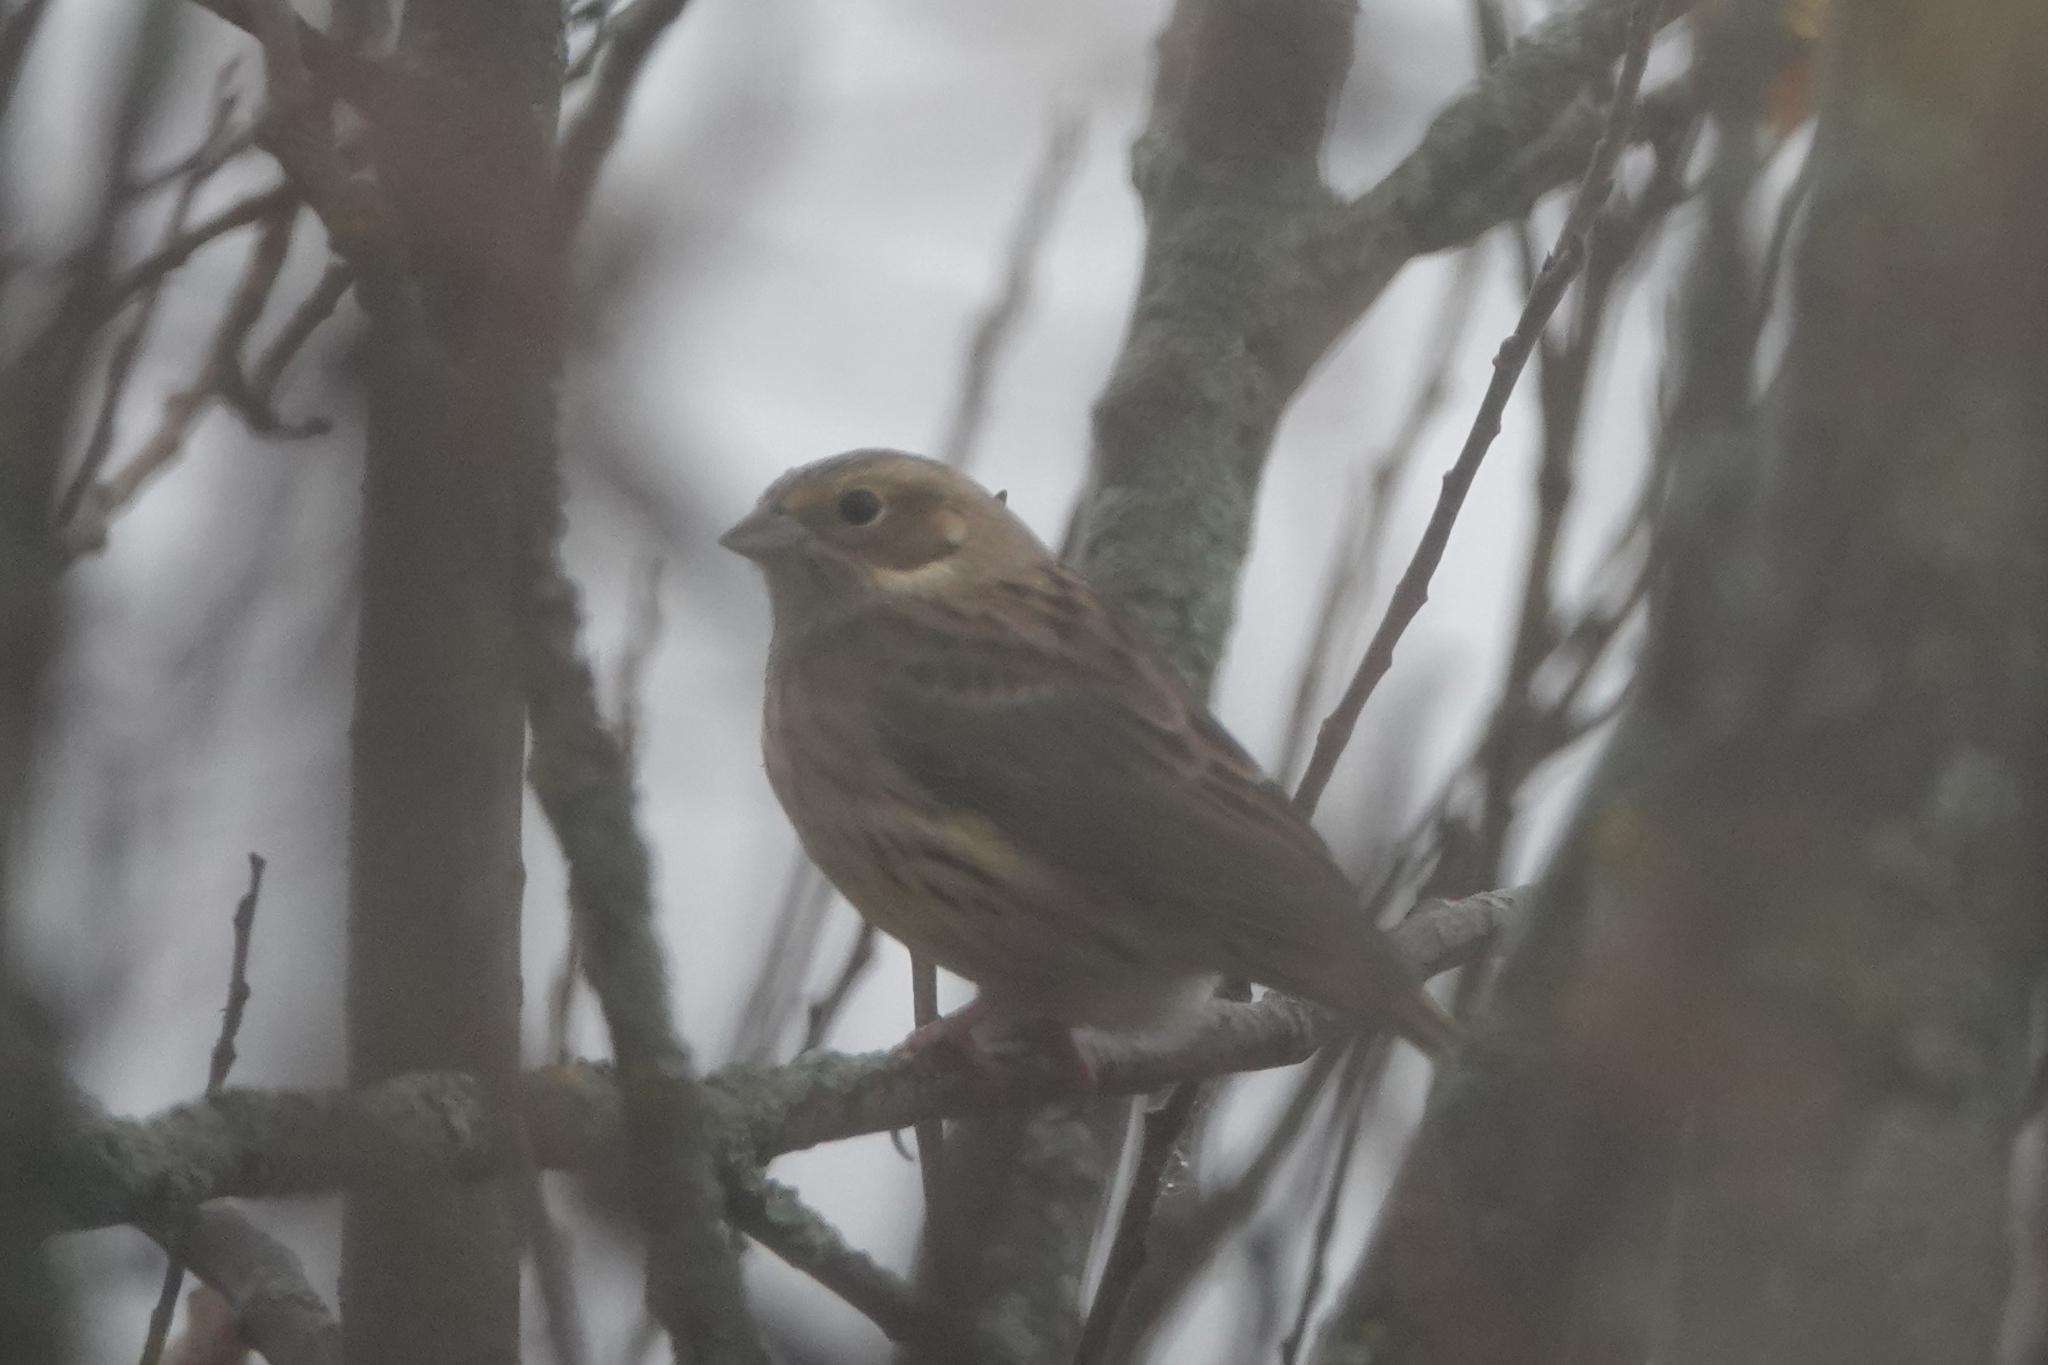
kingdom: Animalia
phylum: Chordata
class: Aves
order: Passeriformes
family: Emberizidae
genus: Emberiza
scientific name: Emberiza citrinella
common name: Yellowhammer
